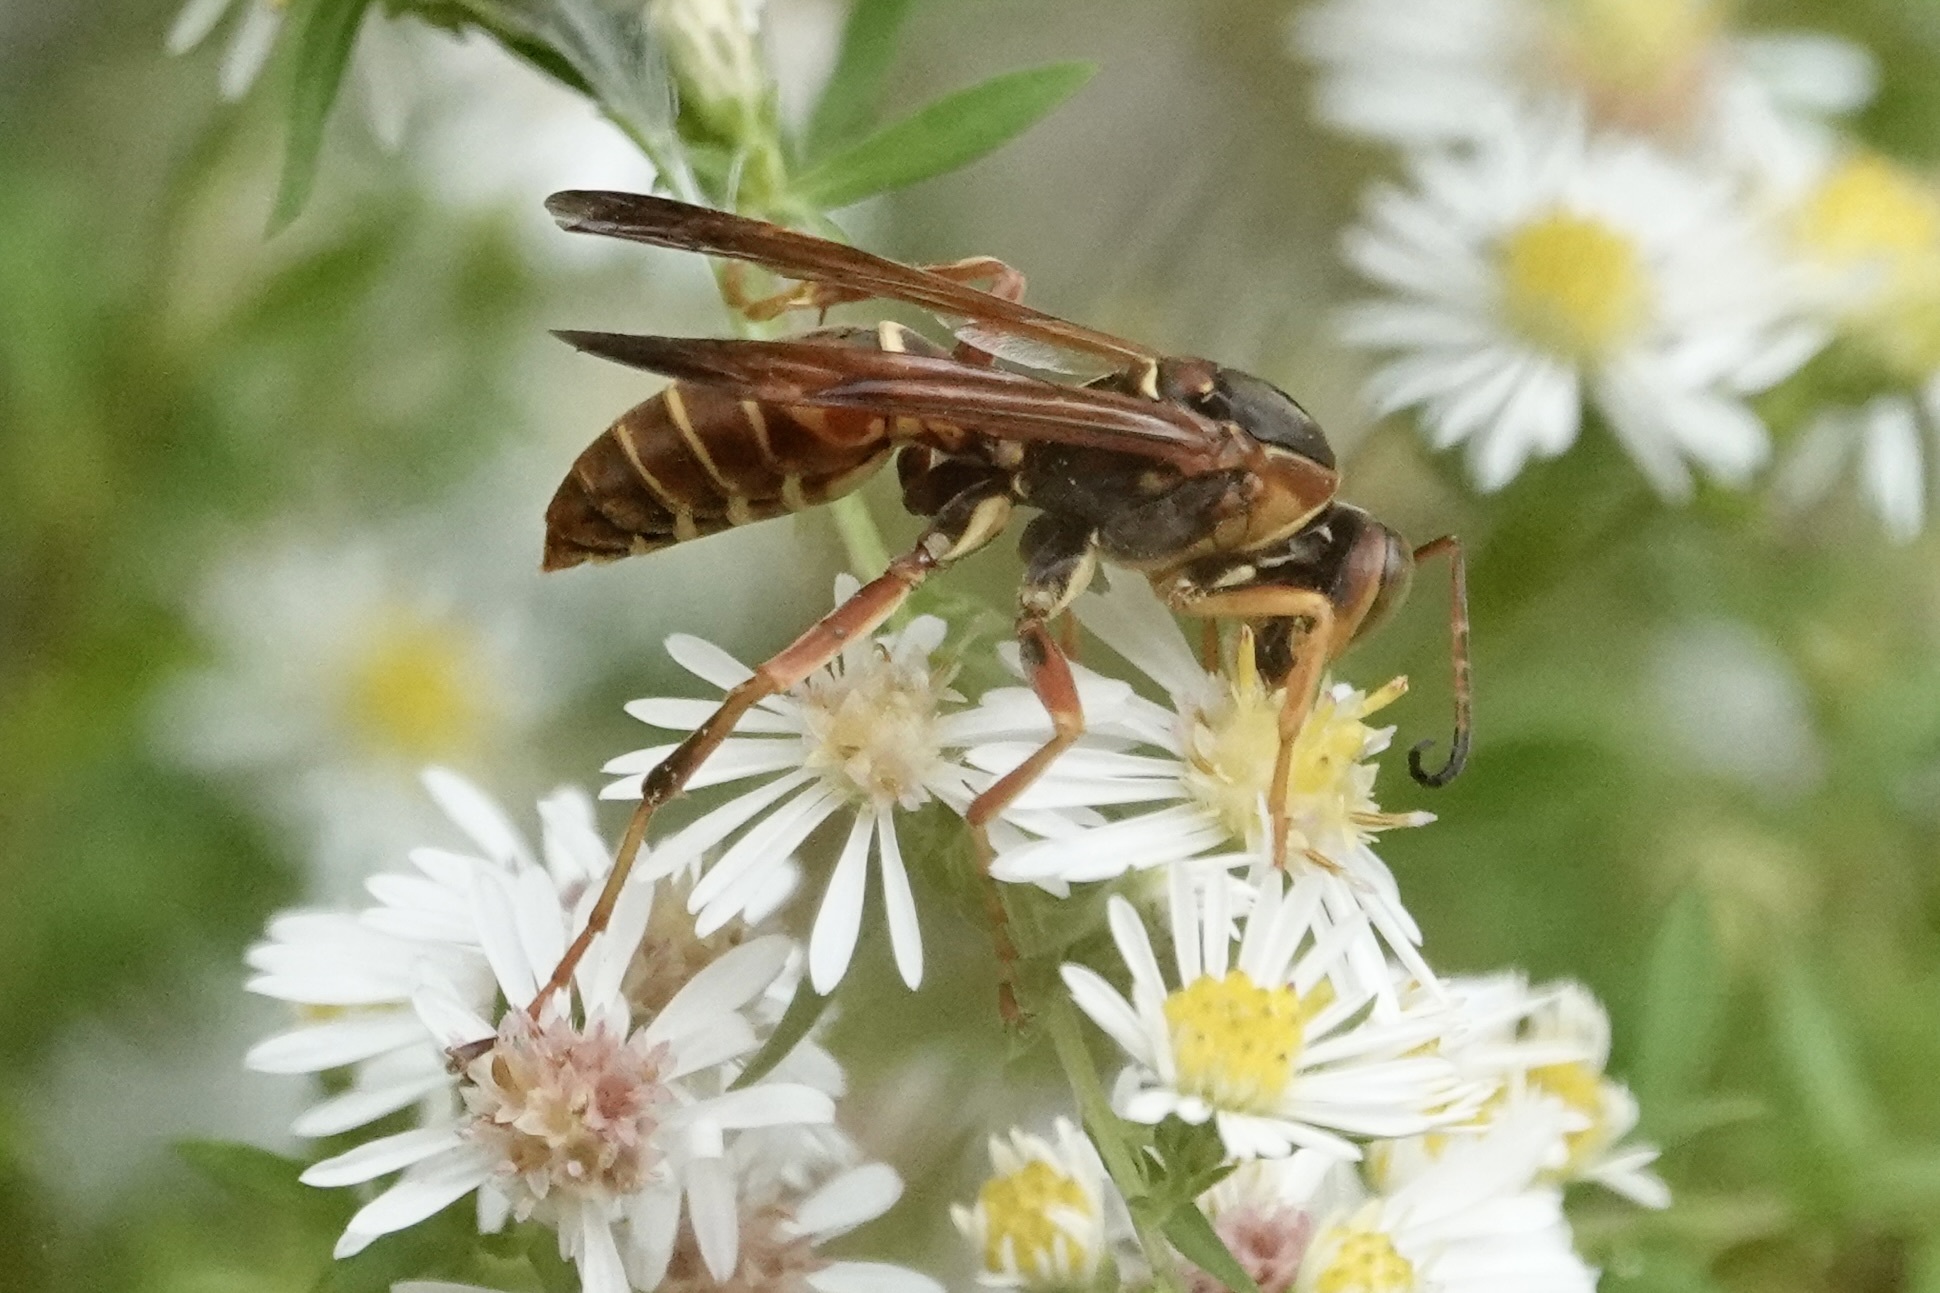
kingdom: Animalia
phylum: Arthropoda
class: Insecta
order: Hymenoptera
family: Eumenidae
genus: Polistes
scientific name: Polistes fuscatus
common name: Dark paper wasp
